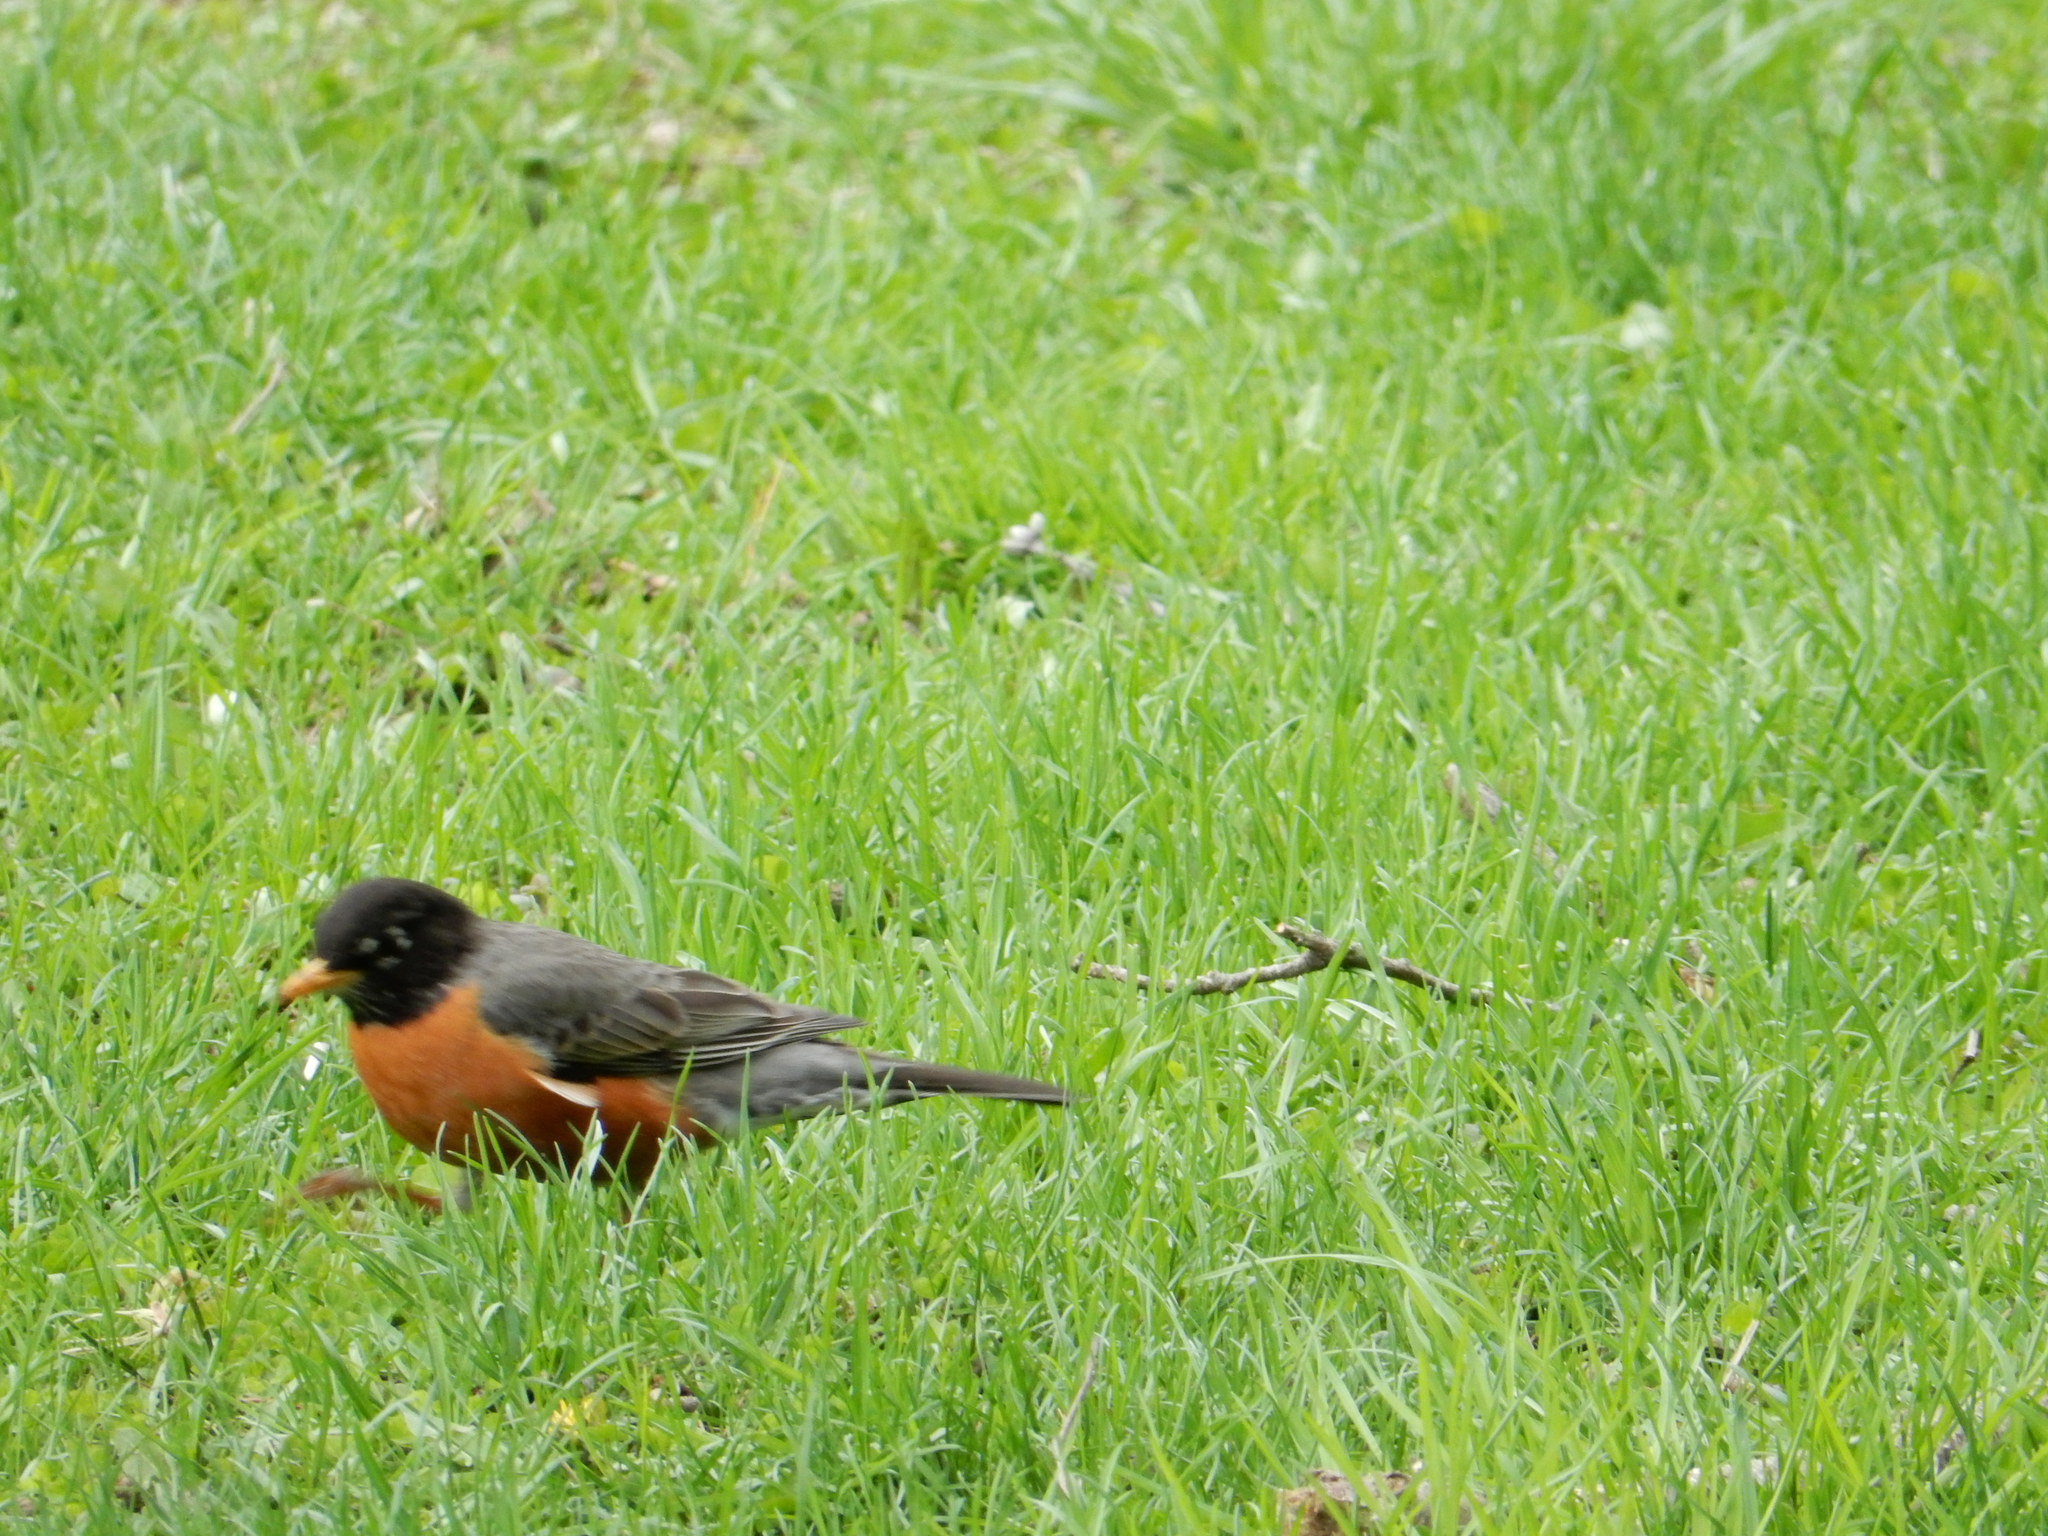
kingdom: Animalia
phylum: Chordata
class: Aves
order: Passeriformes
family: Turdidae
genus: Turdus
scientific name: Turdus migratorius
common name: American robin
